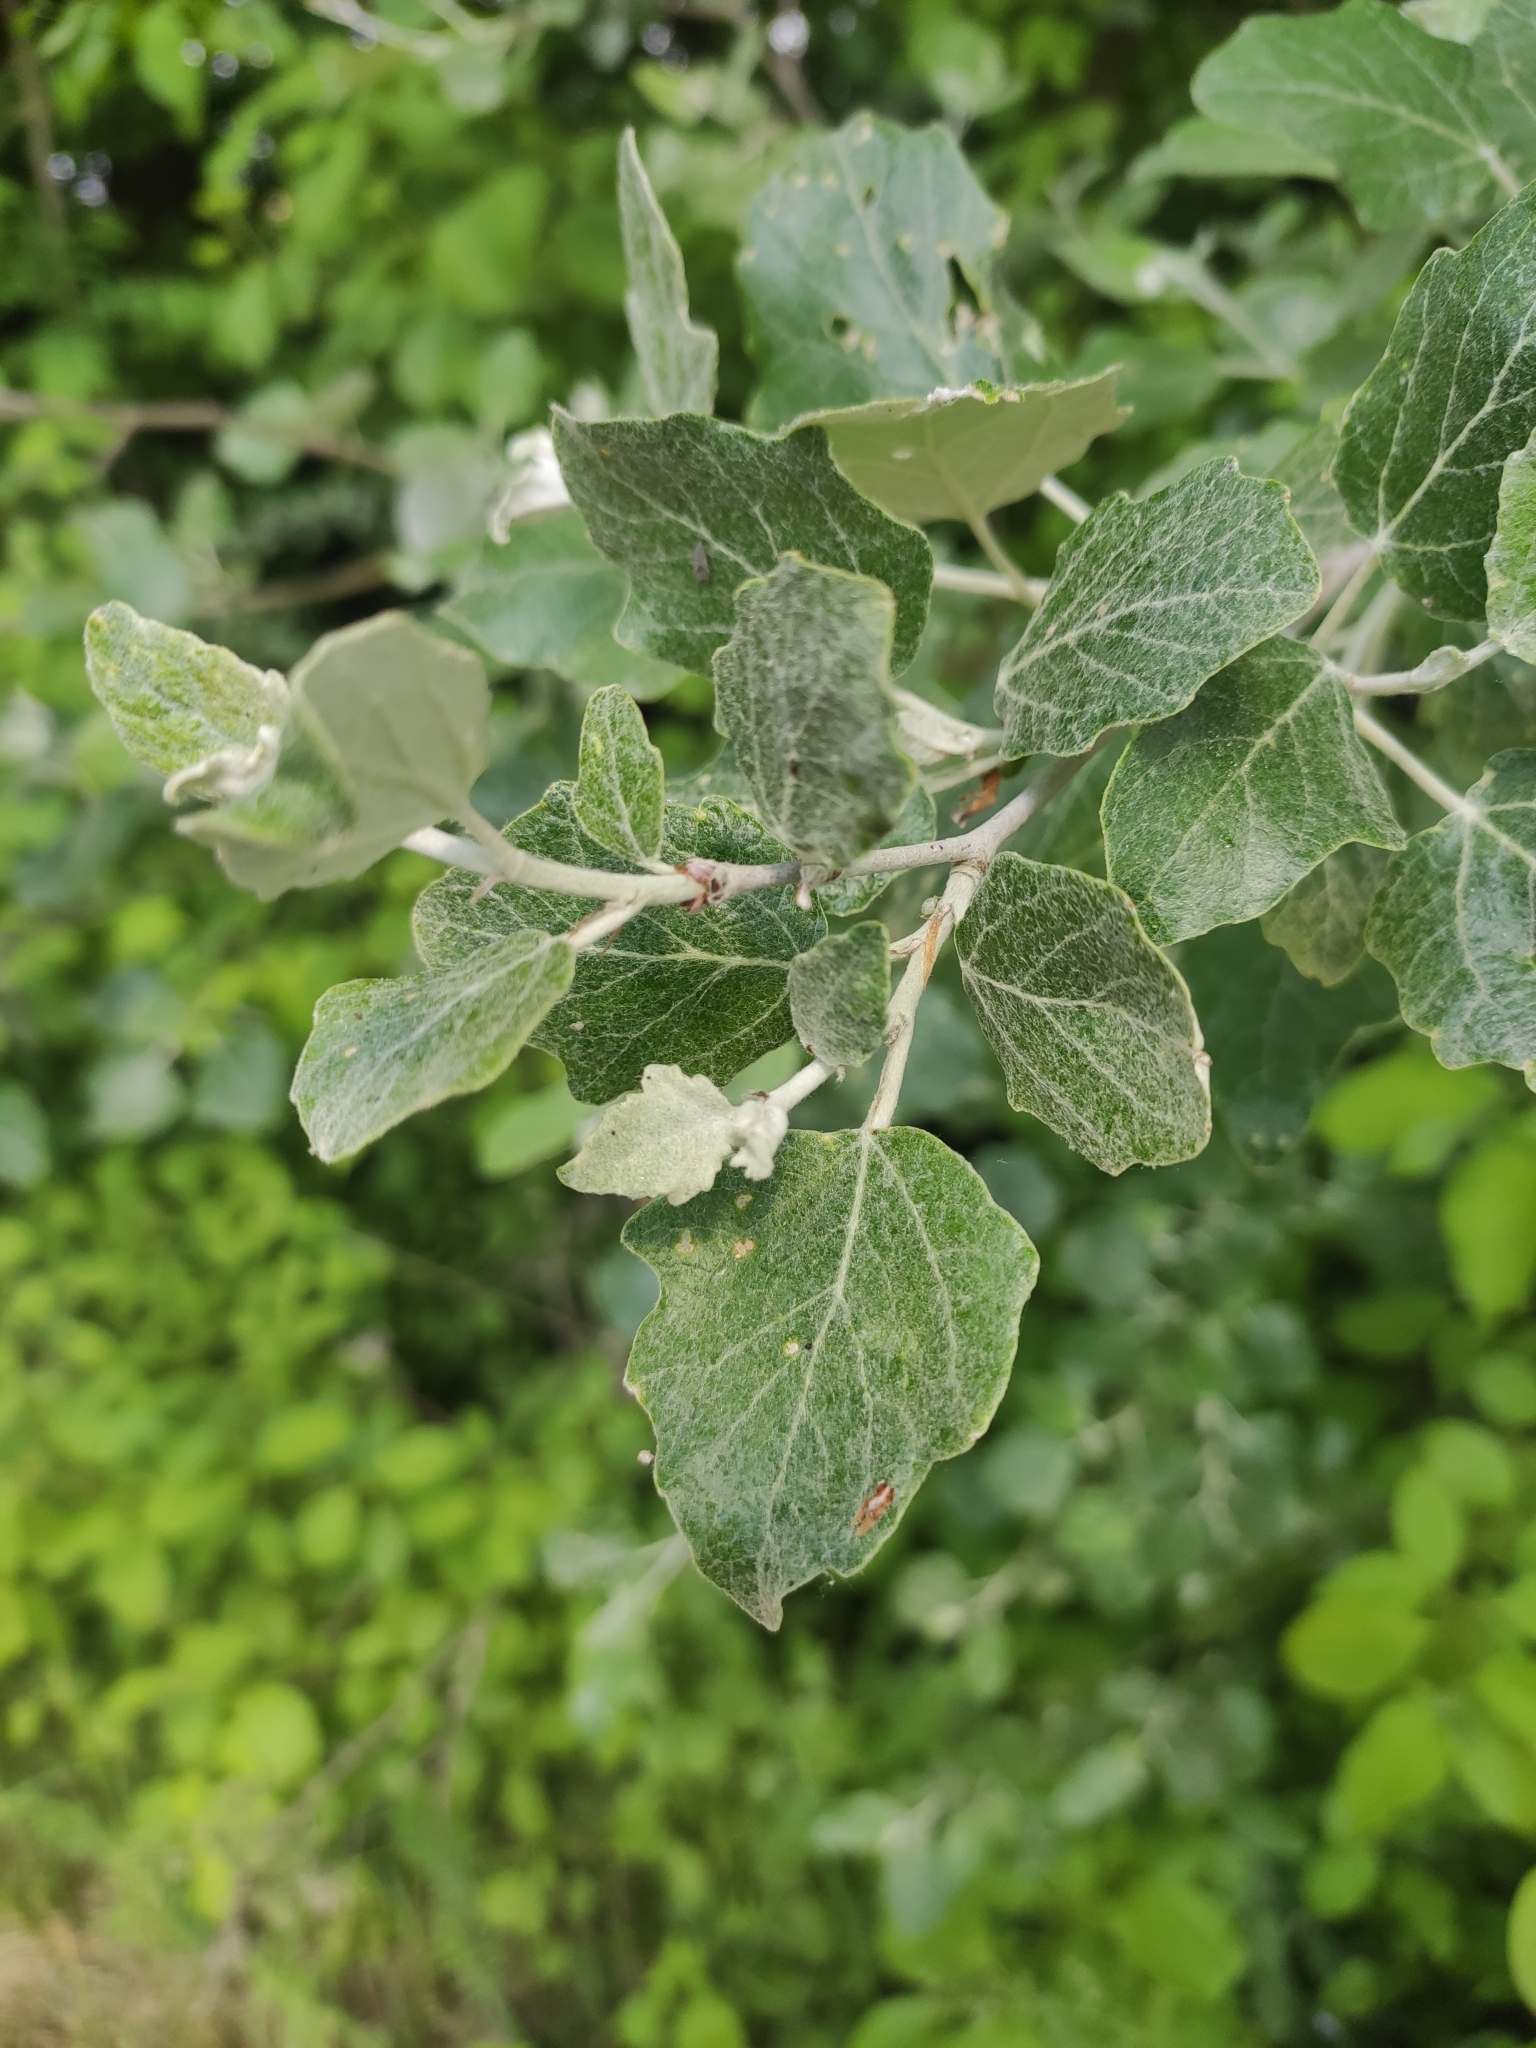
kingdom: Plantae
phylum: Tracheophyta
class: Magnoliopsida
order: Malpighiales
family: Salicaceae
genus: Populus
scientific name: Populus alba
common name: White poplar
